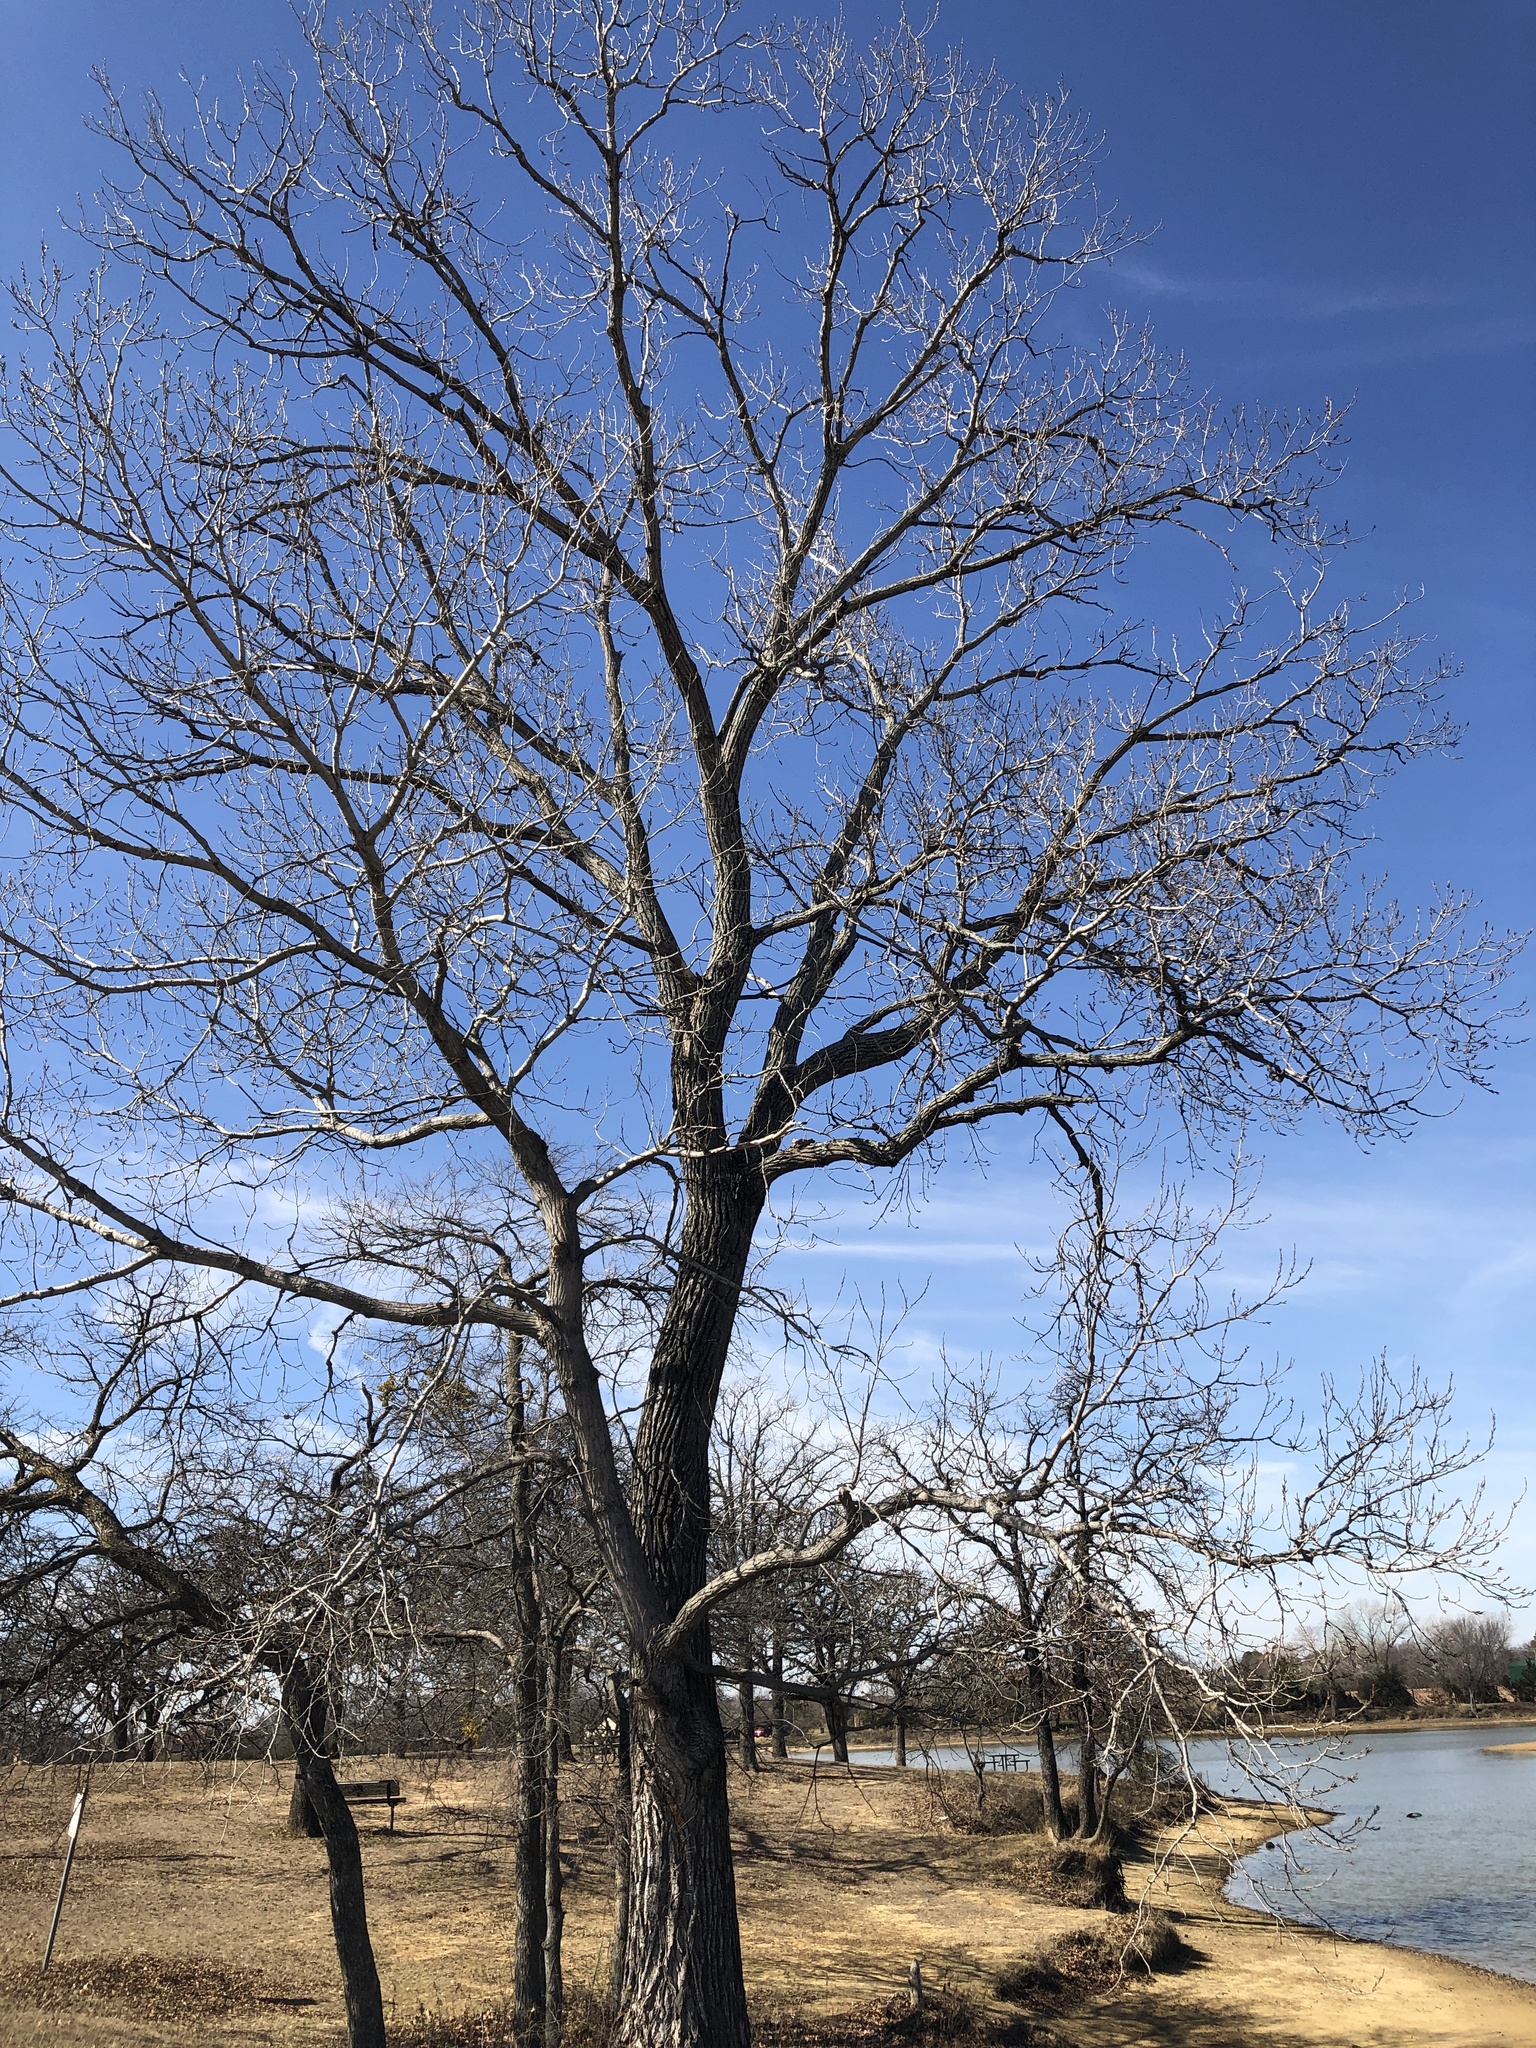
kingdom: Plantae
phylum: Tracheophyta
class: Magnoliopsida
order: Malpighiales
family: Salicaceae
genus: Populus
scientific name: Populus deltoides
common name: Eastern cottonwood
